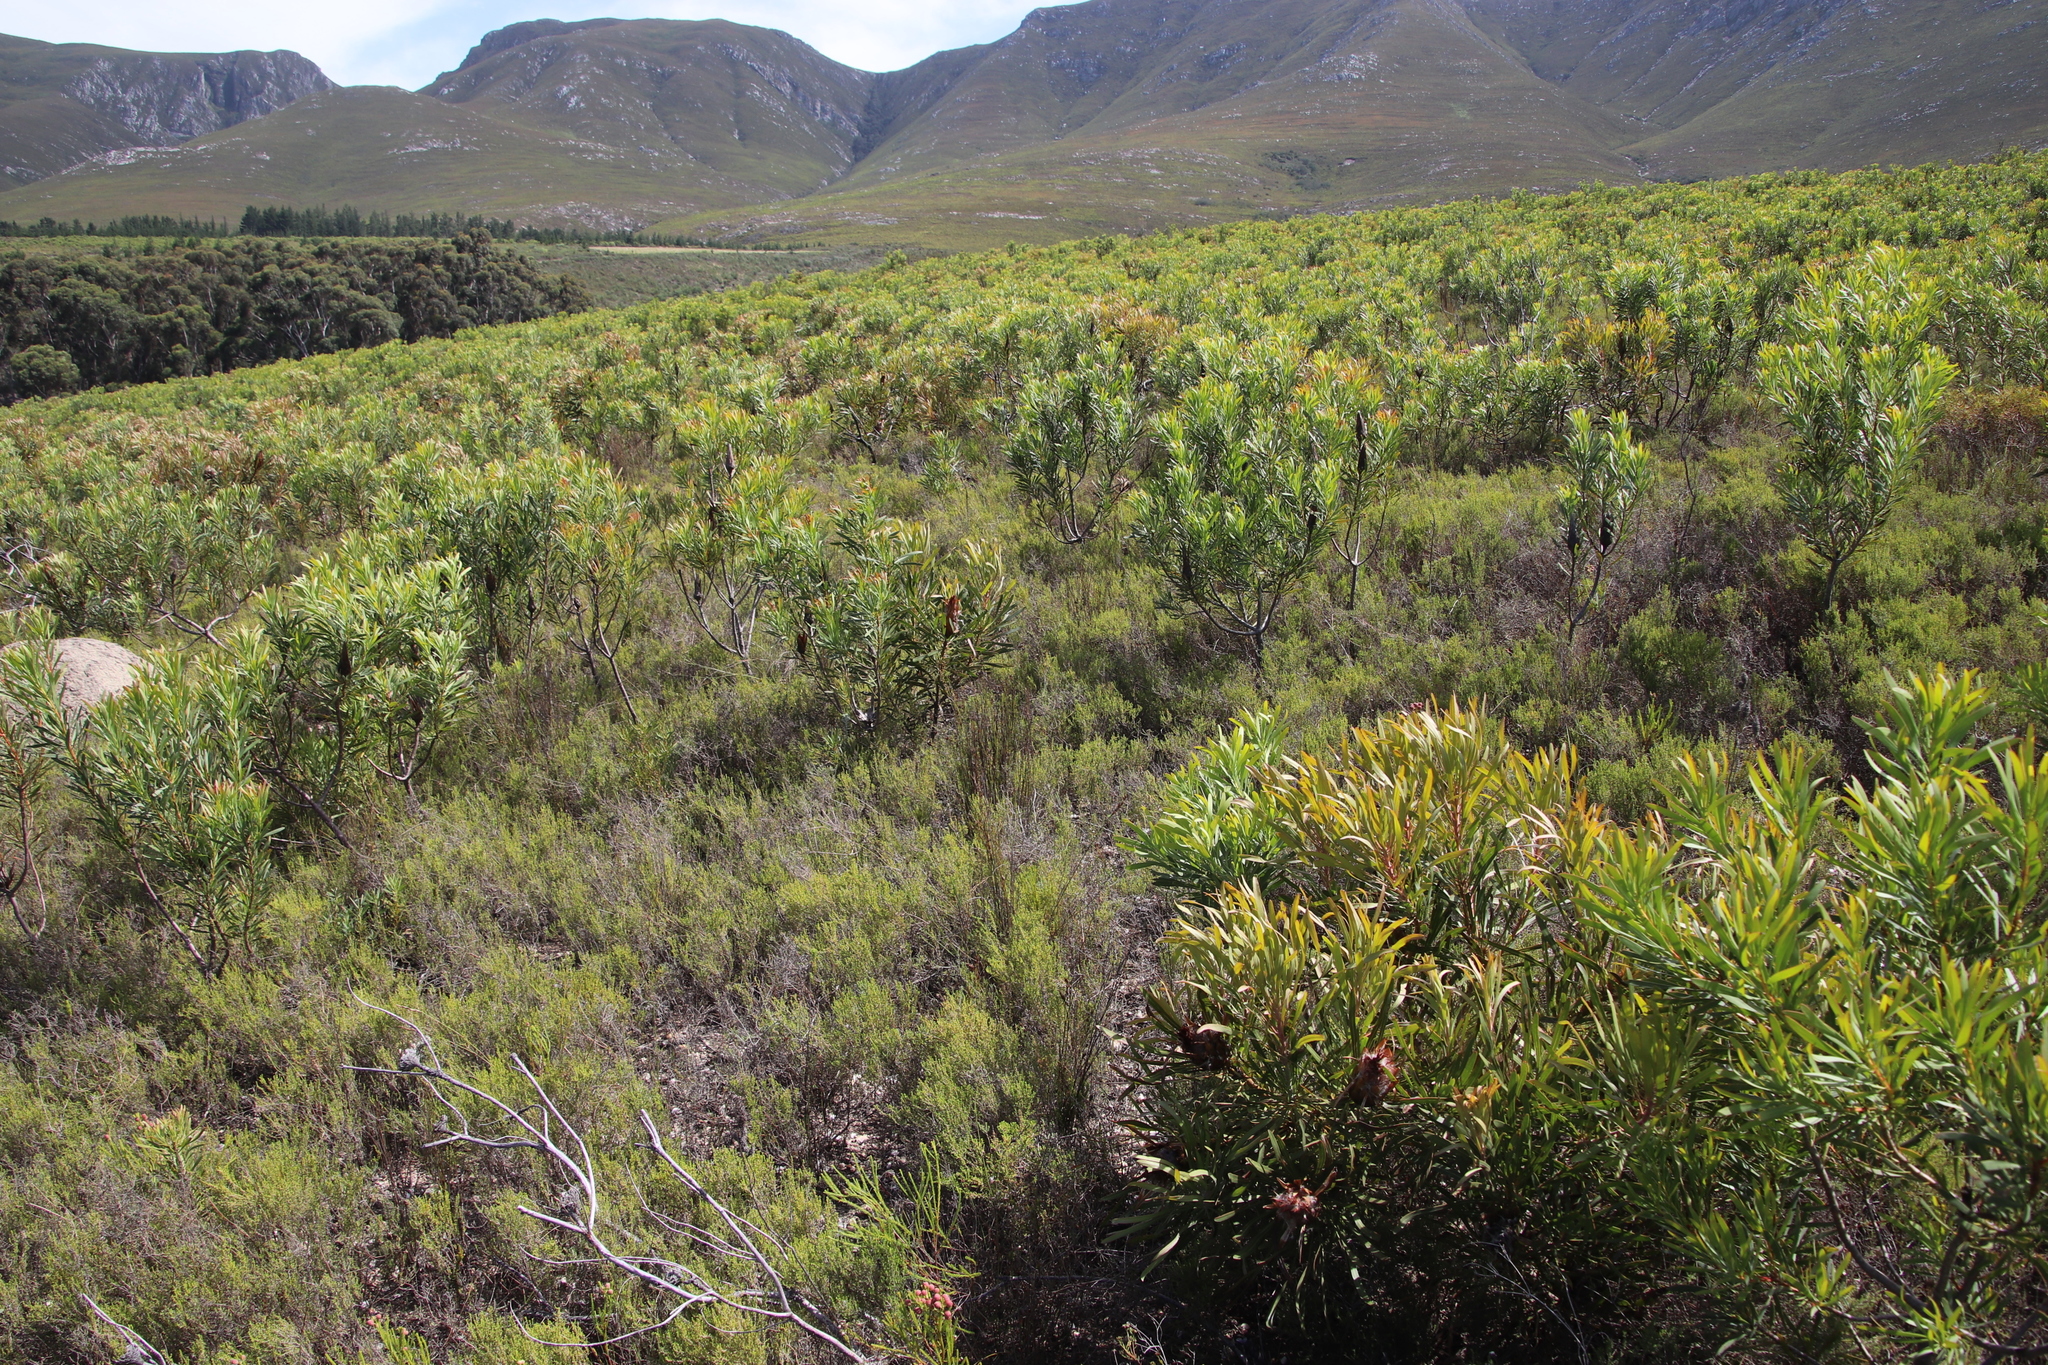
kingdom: Plantae
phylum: Tracheophyta
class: Magnoliopsida
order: Proteales
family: Proteaceae
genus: Protea
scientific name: Protea longifolia
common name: Long-leaf sugarbush
